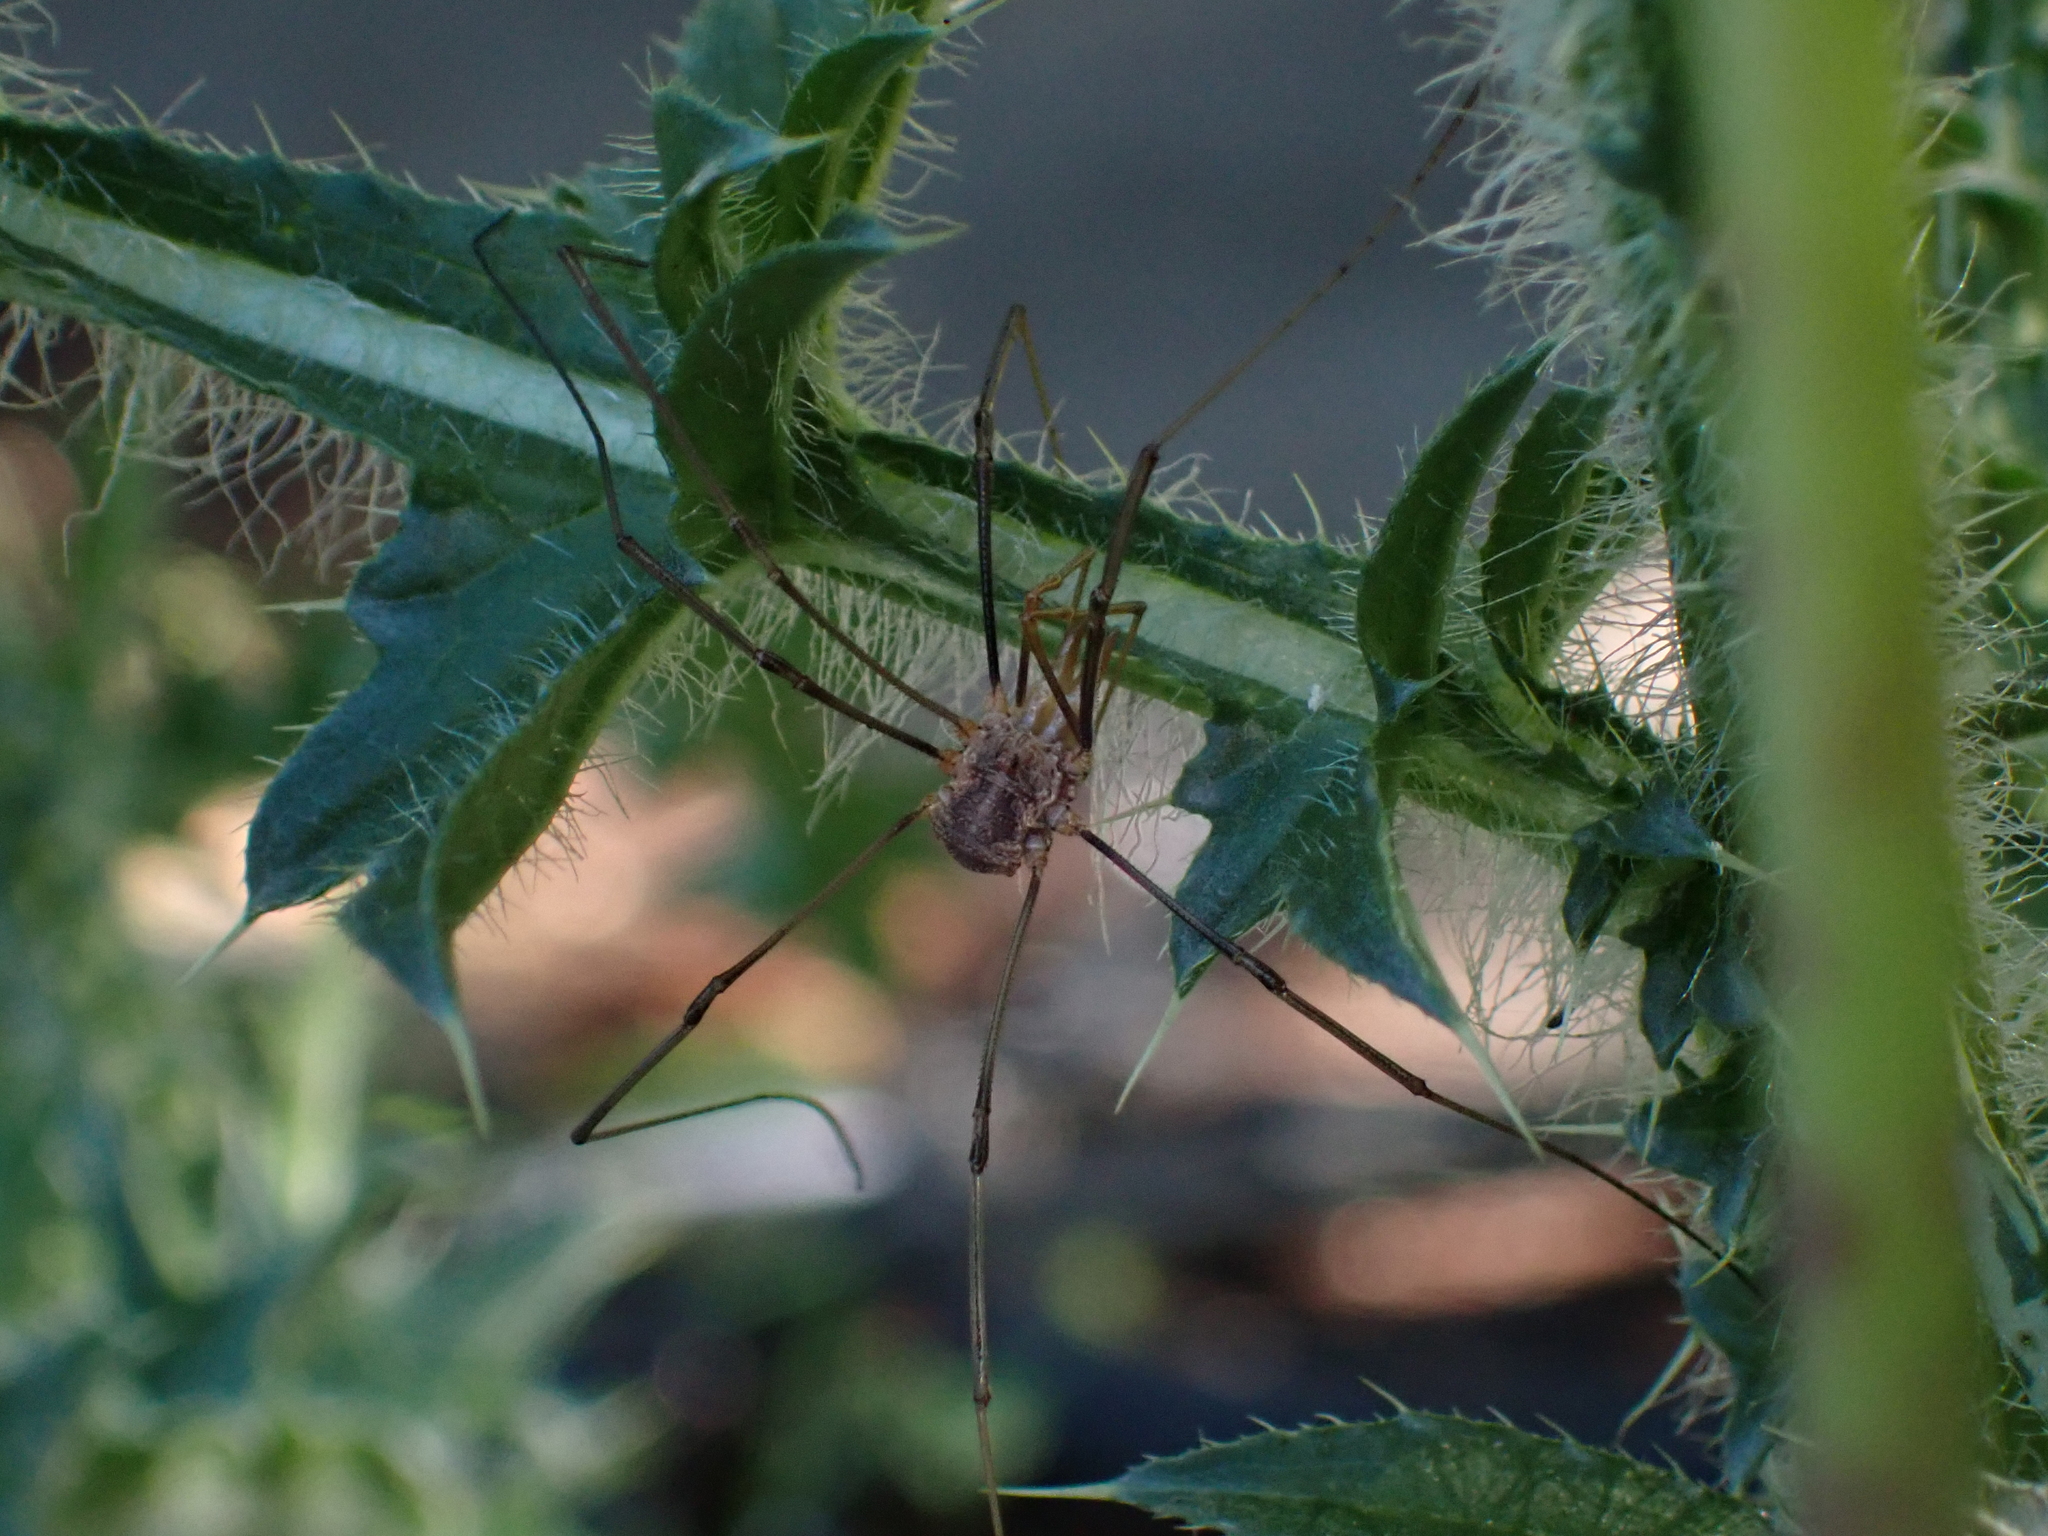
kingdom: Animalia
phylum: Arthropoda
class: Arachnida
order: Opiliones
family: Phalangiidae
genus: Phalangium
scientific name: Phalangium opilio
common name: Daddy longleg
